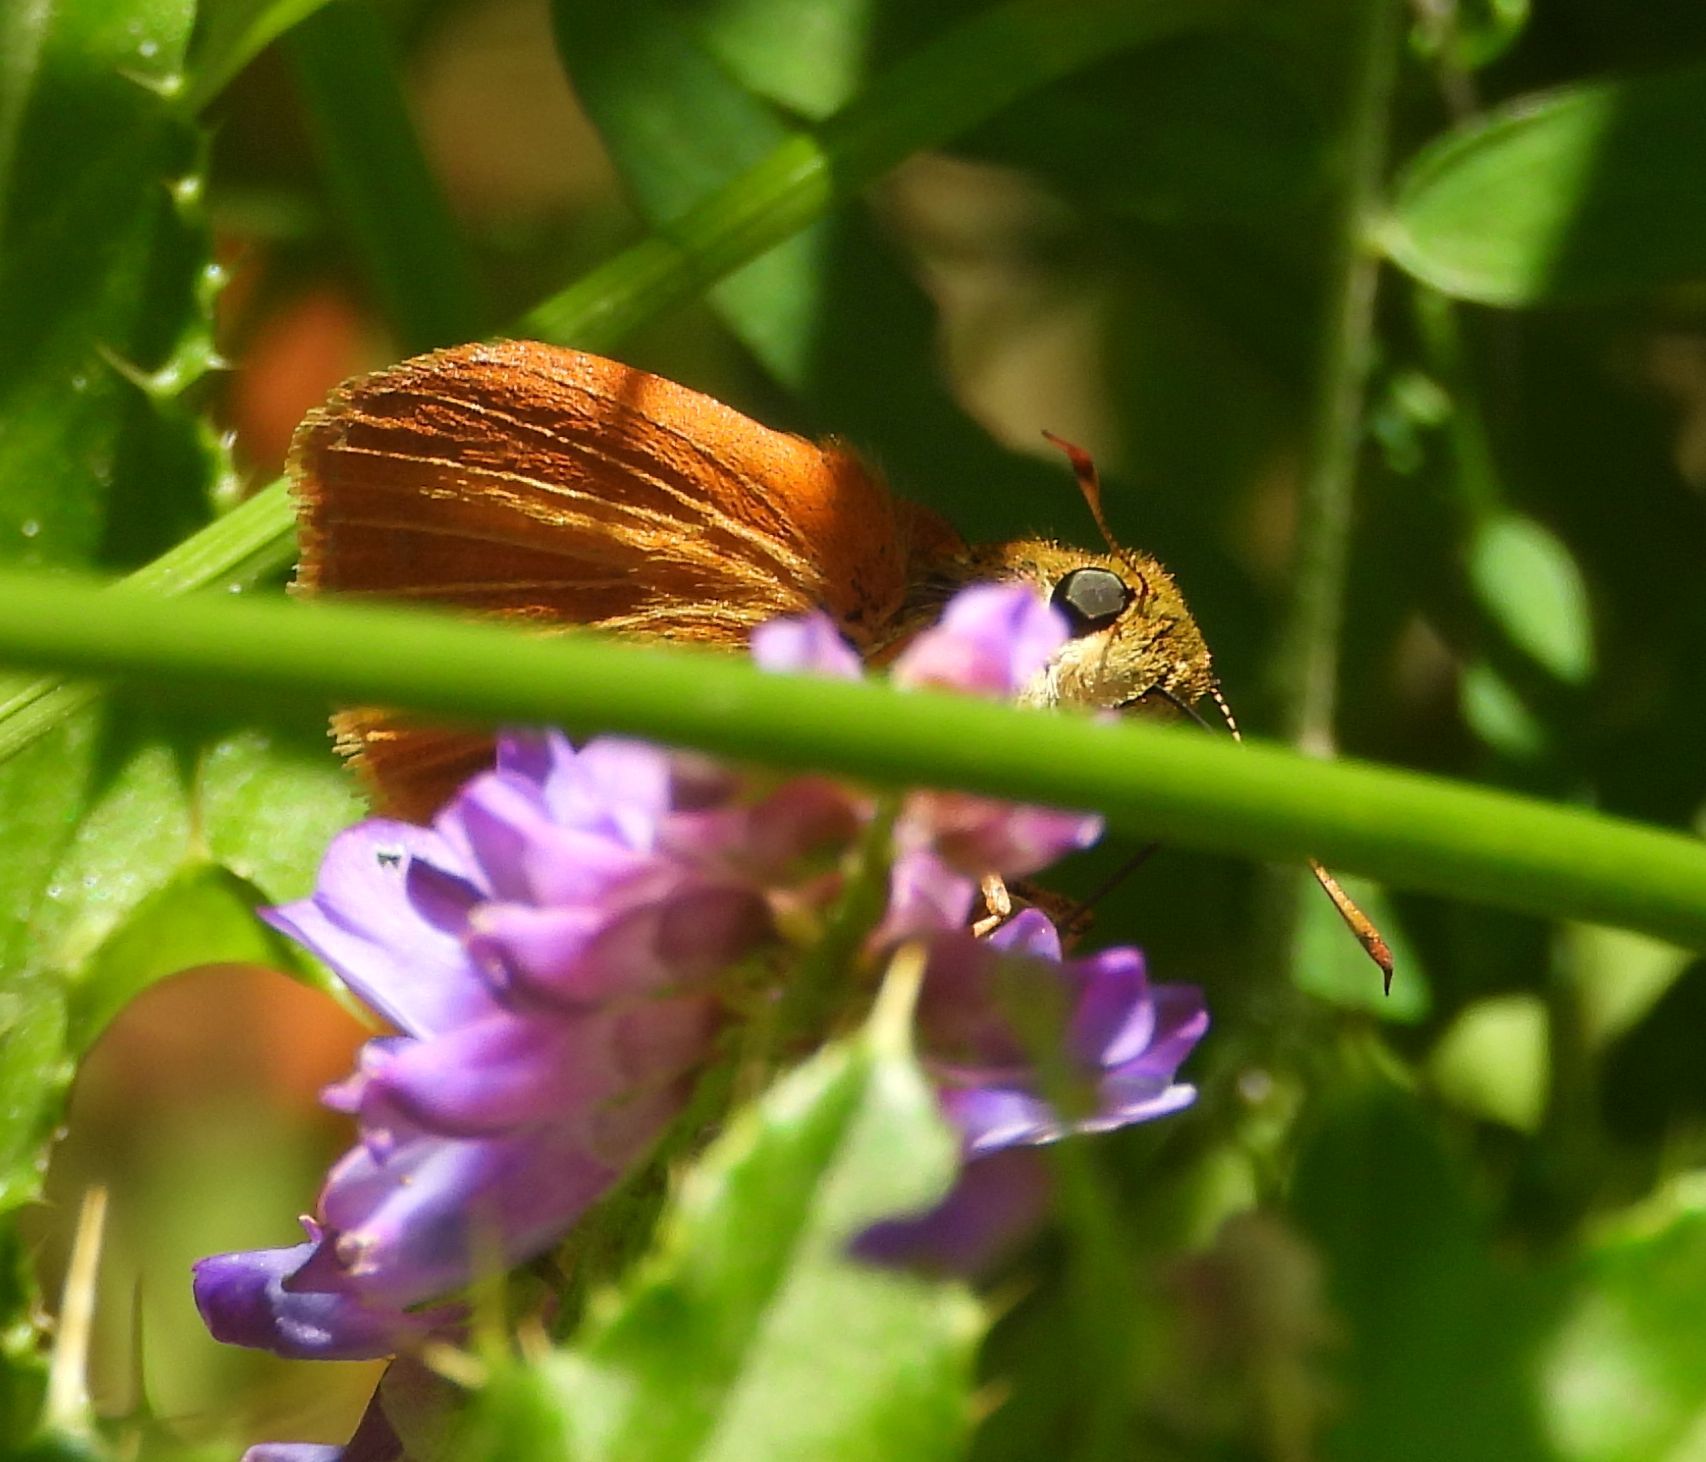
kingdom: Animalia
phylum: Arthropoda
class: Insecta
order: Lepidoptera
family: Hesperiidae
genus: Euphyes
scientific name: Euphyes dion
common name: Dion skipper
